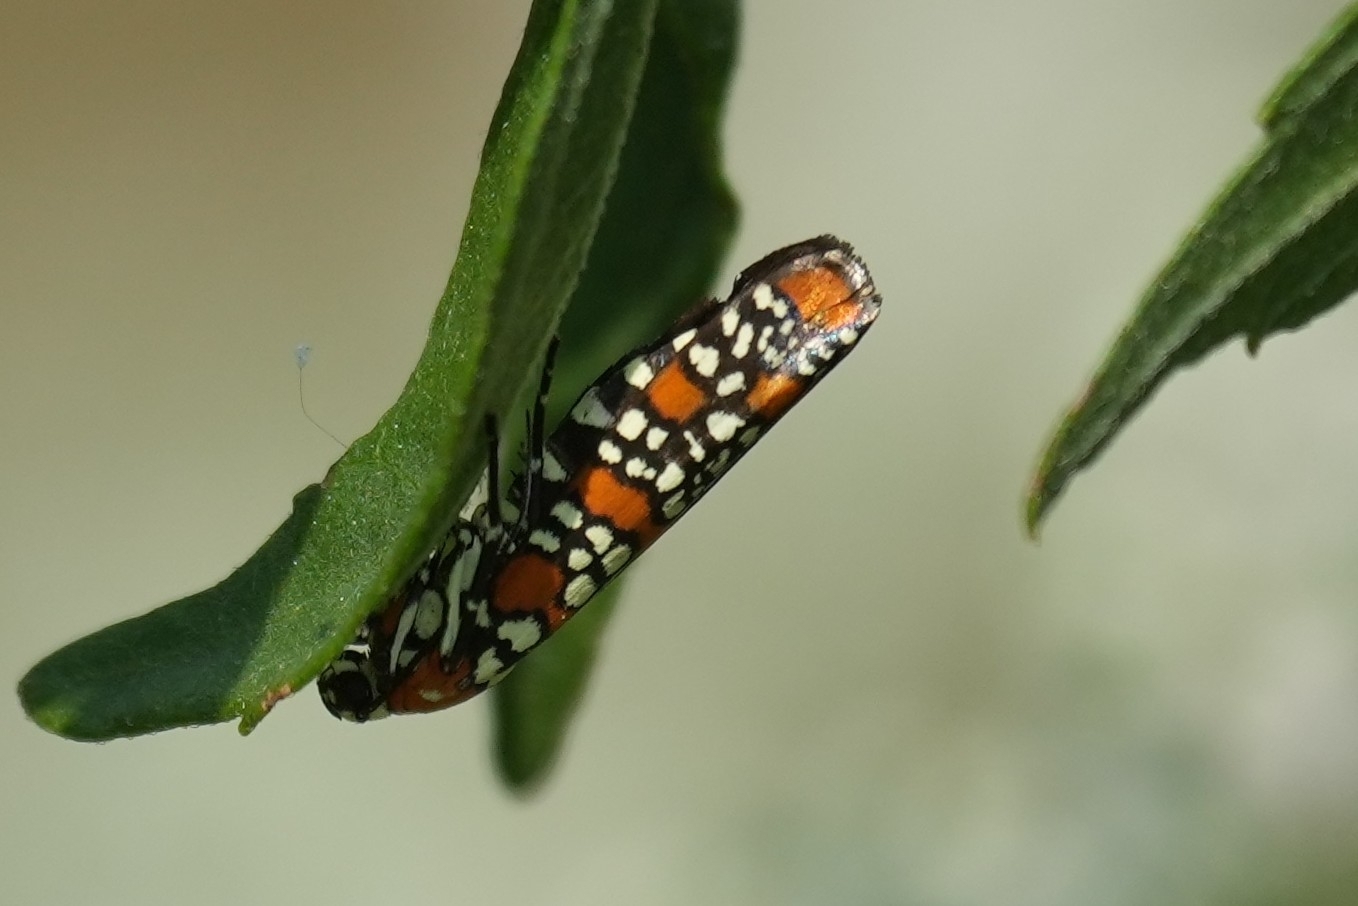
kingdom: Animalia
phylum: Arthropoda
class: Insecta
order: Lepidoptera
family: Attevidae
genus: Atteva
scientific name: Atteva punctella
